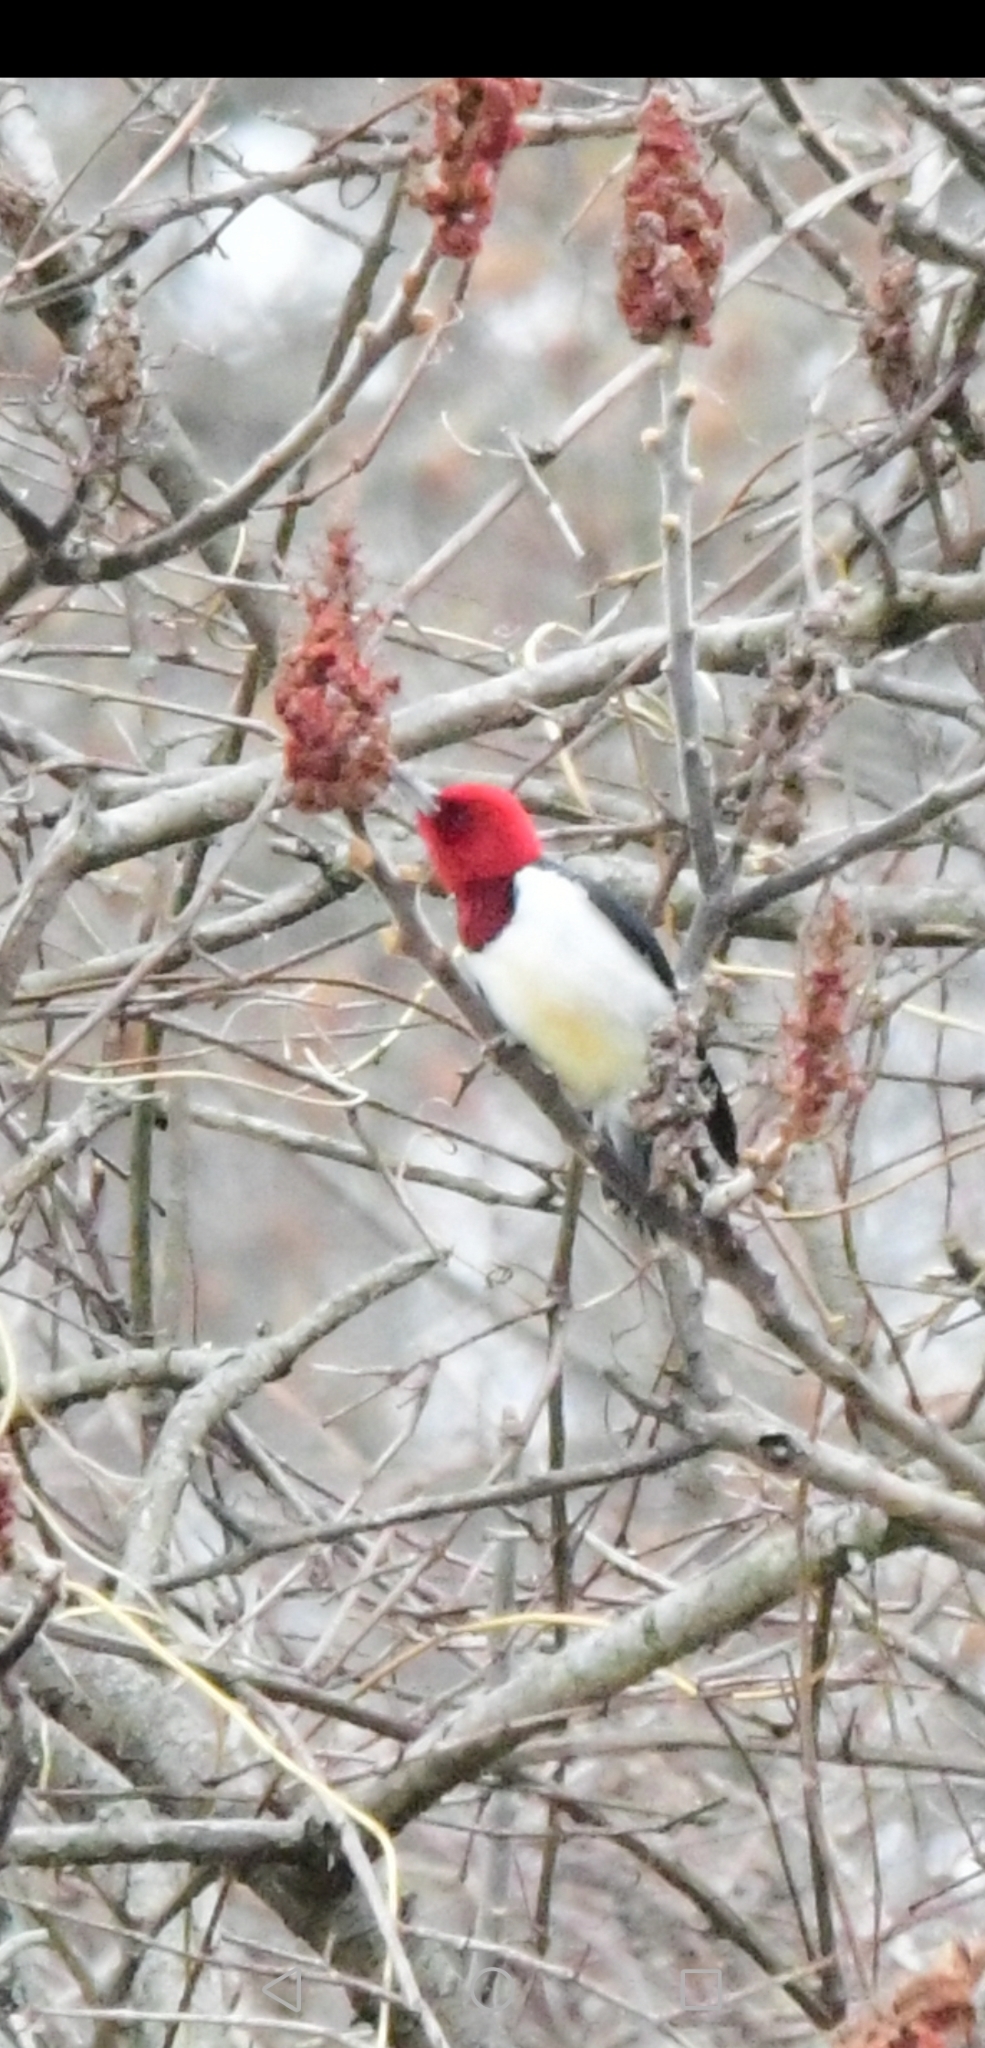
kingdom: Animalia
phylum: Chordata
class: Aves
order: Piciformes
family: Picidae
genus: Melanerpes
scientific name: Melanerpes erythrocephalus
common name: Red-headed woodpecker
